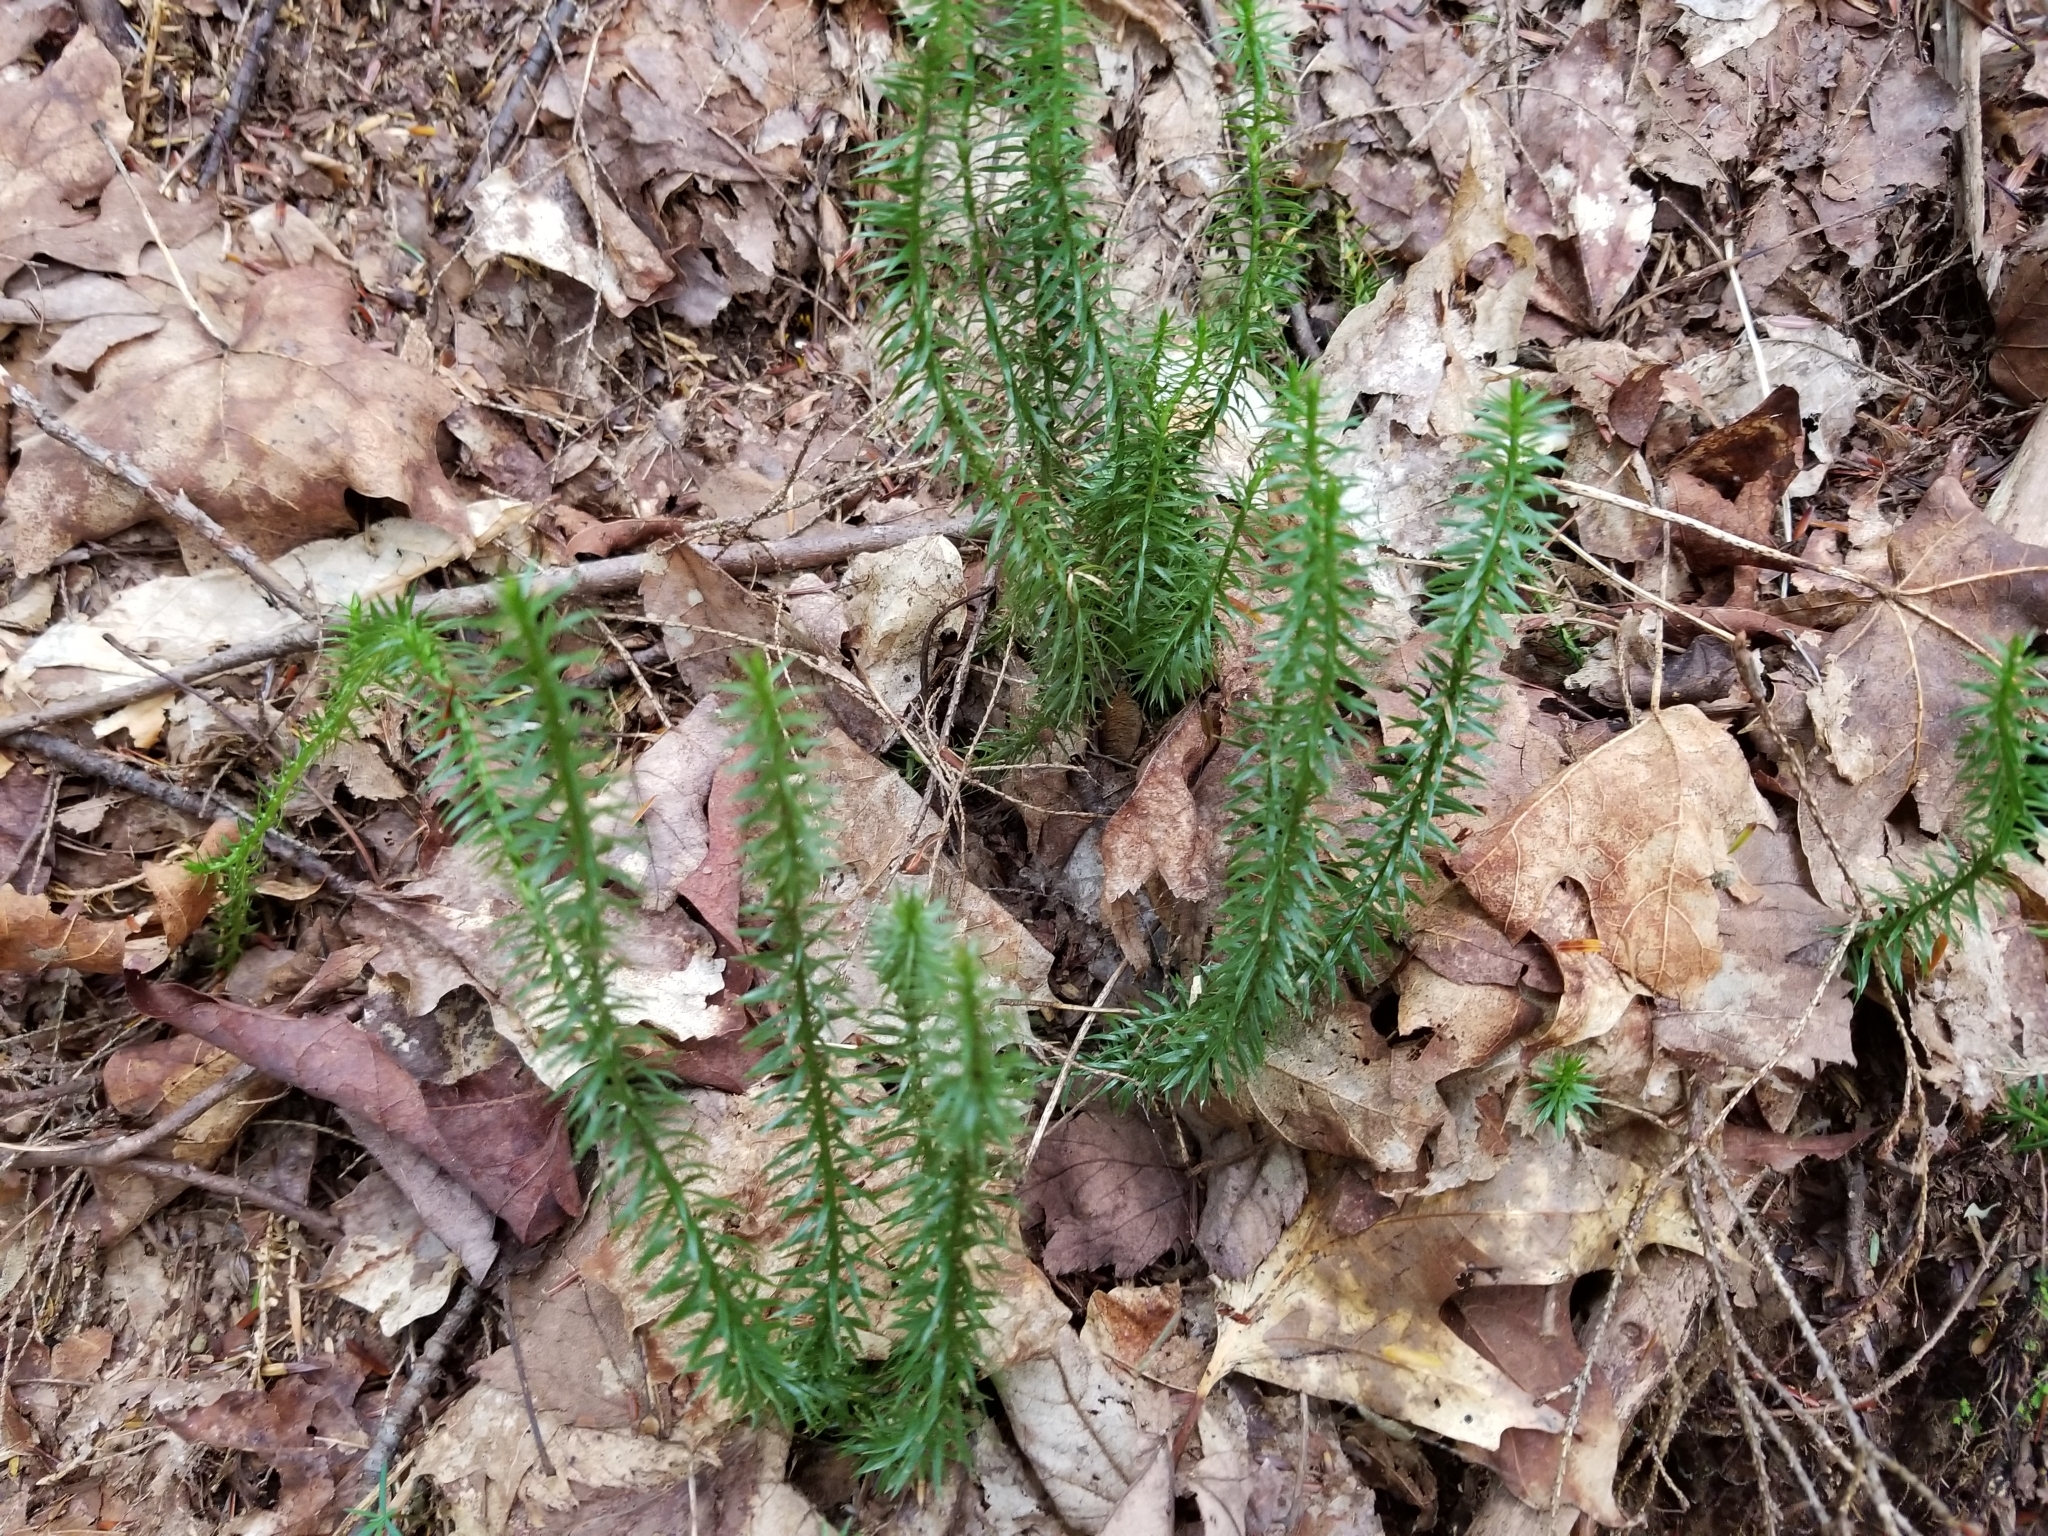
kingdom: Plantae
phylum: Tracheophyta
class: Lycopodiopsida
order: Lycopodiales
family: Lycopodiaceae
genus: Spinulum
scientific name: Spinulum annotinum
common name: Interrupted club-moss
